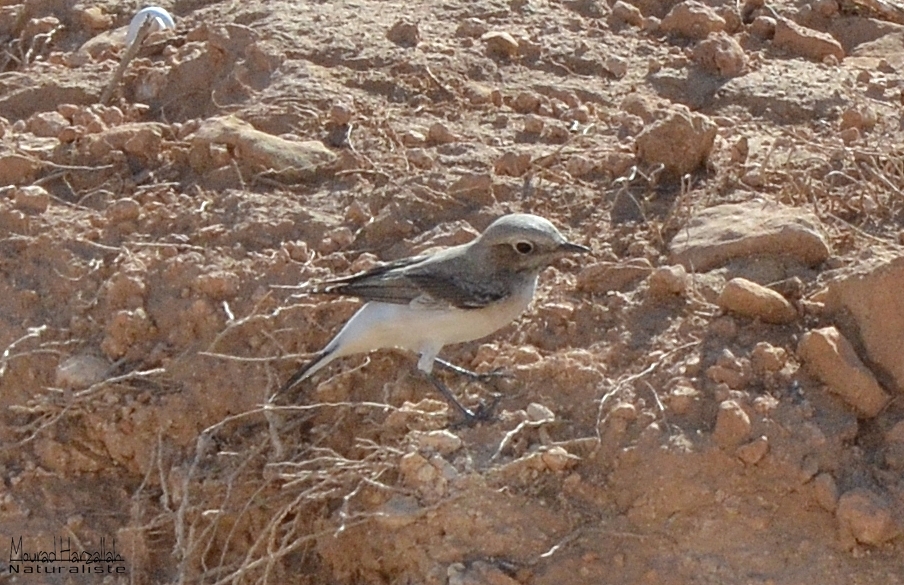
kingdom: Animalia
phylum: Chordata
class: Aves
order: Passeriformes
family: Muscicapidae
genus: Oenanthe
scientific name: Oenanthe lugens
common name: Mourning wheatear
